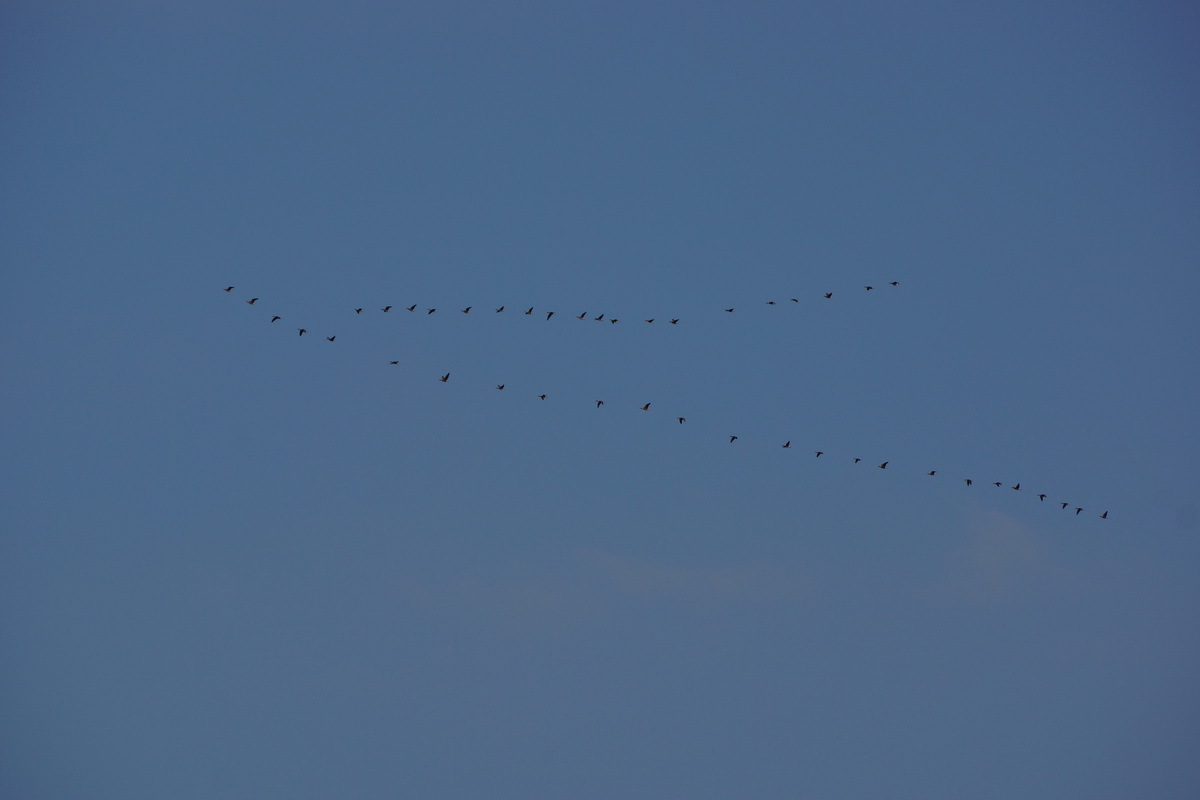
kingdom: Animalia
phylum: Chordata
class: Aves
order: Anseriformes
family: Anatidae
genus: Anser
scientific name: Anser albifrons
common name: Greater white-fronted goose
